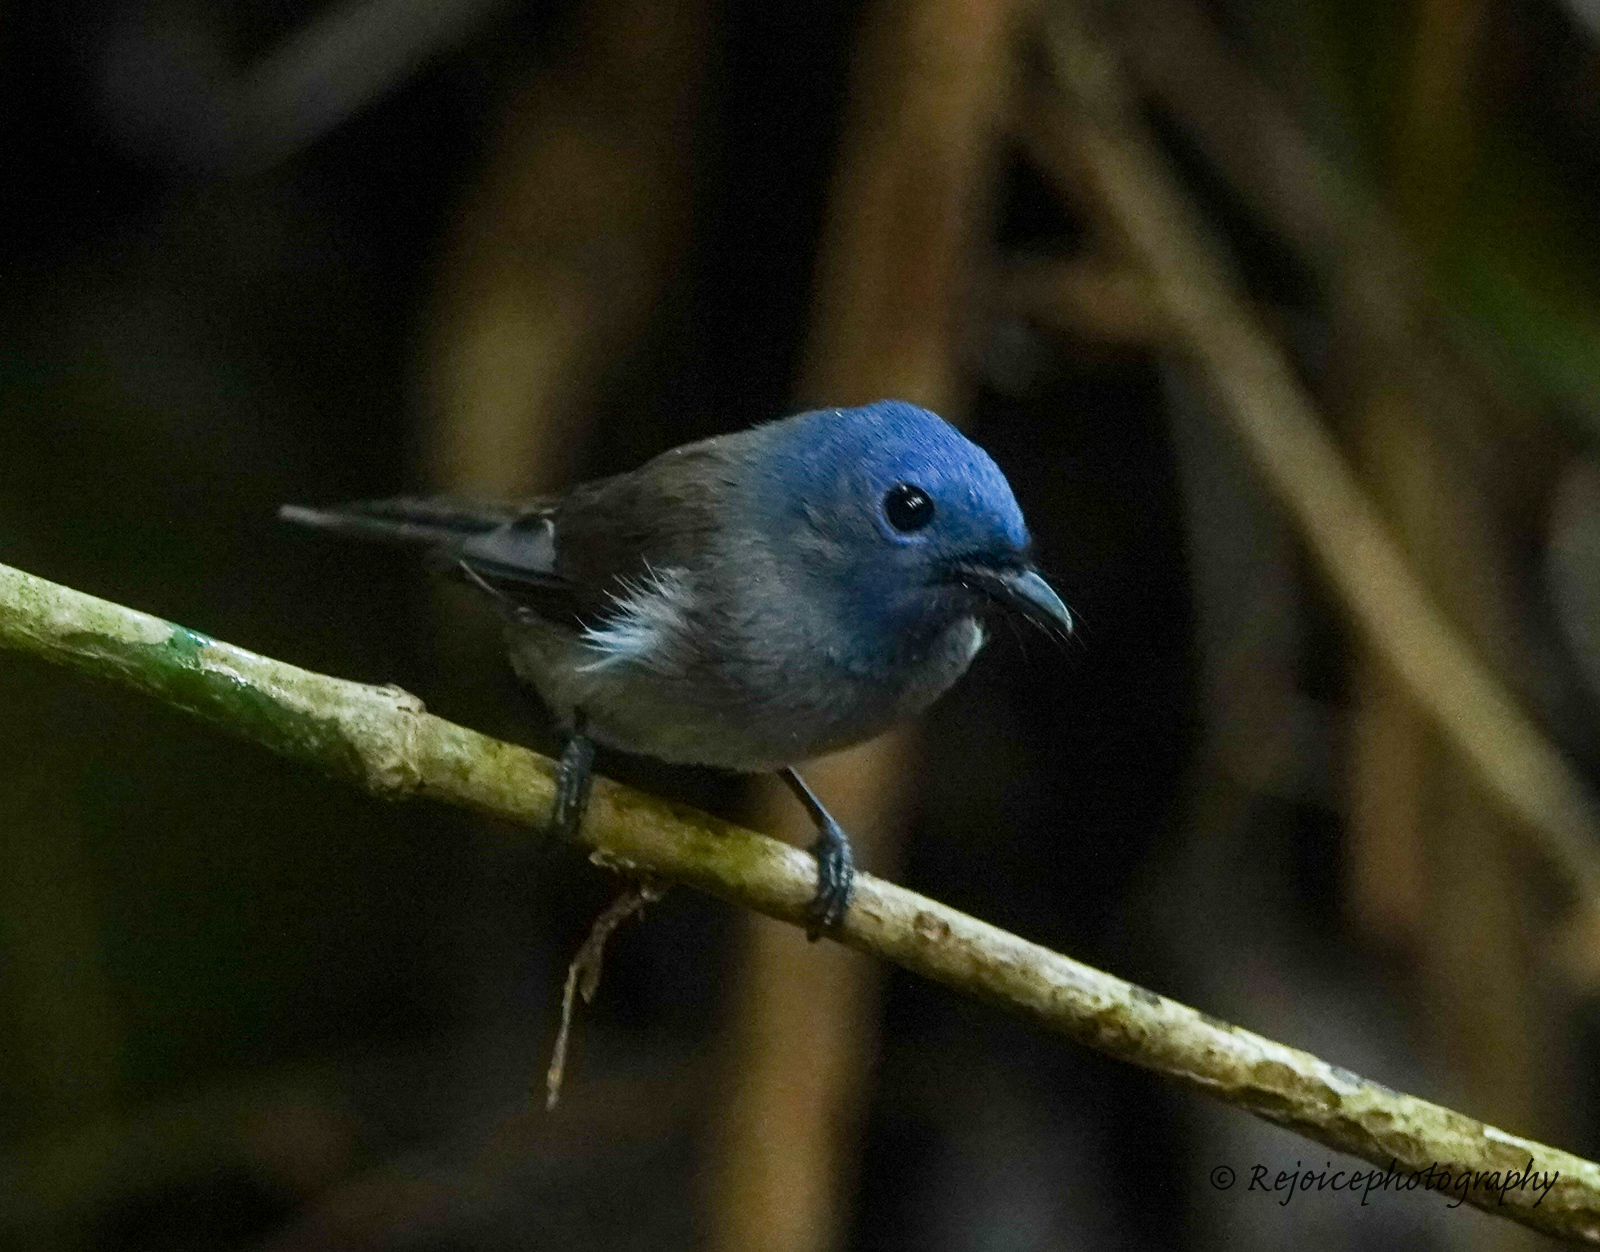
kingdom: Animalia
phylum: Chordata
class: Aves
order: Passeriformes
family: Monarchidae
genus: Hypothymis
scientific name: Hypothymis azurea
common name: Black-naped monarch
